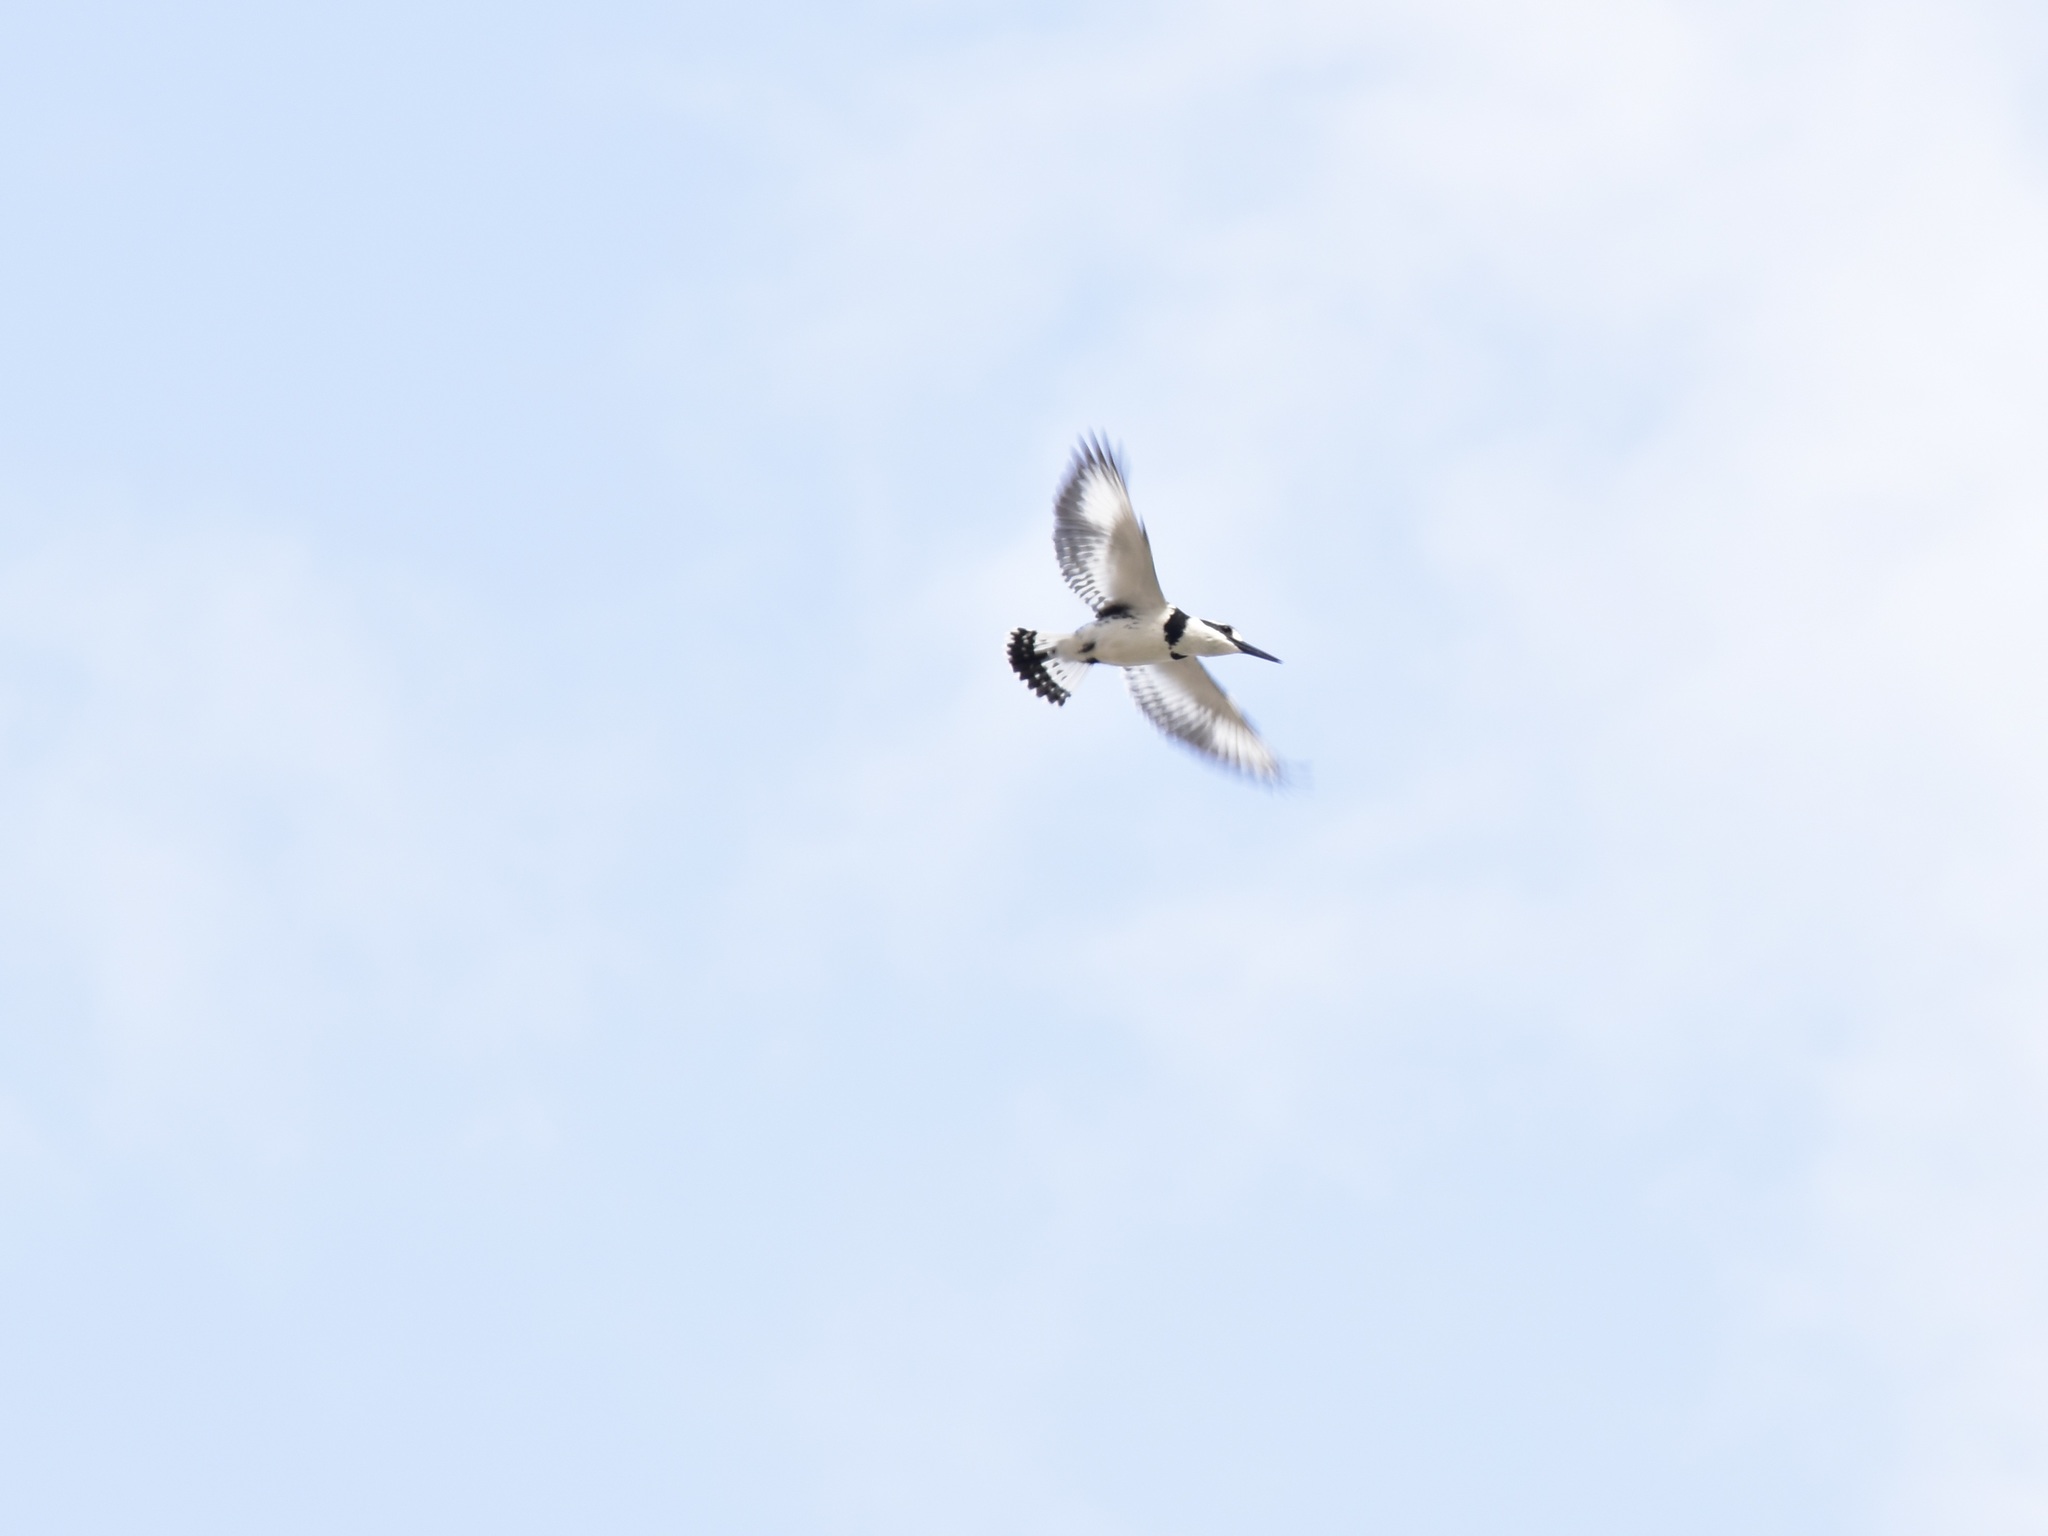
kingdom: Animalia
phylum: Chordata
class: Aves
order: Coraciiformes
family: Alcedinidae
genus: Ceryle
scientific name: Ceryle rudis
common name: Pied kingfisher
